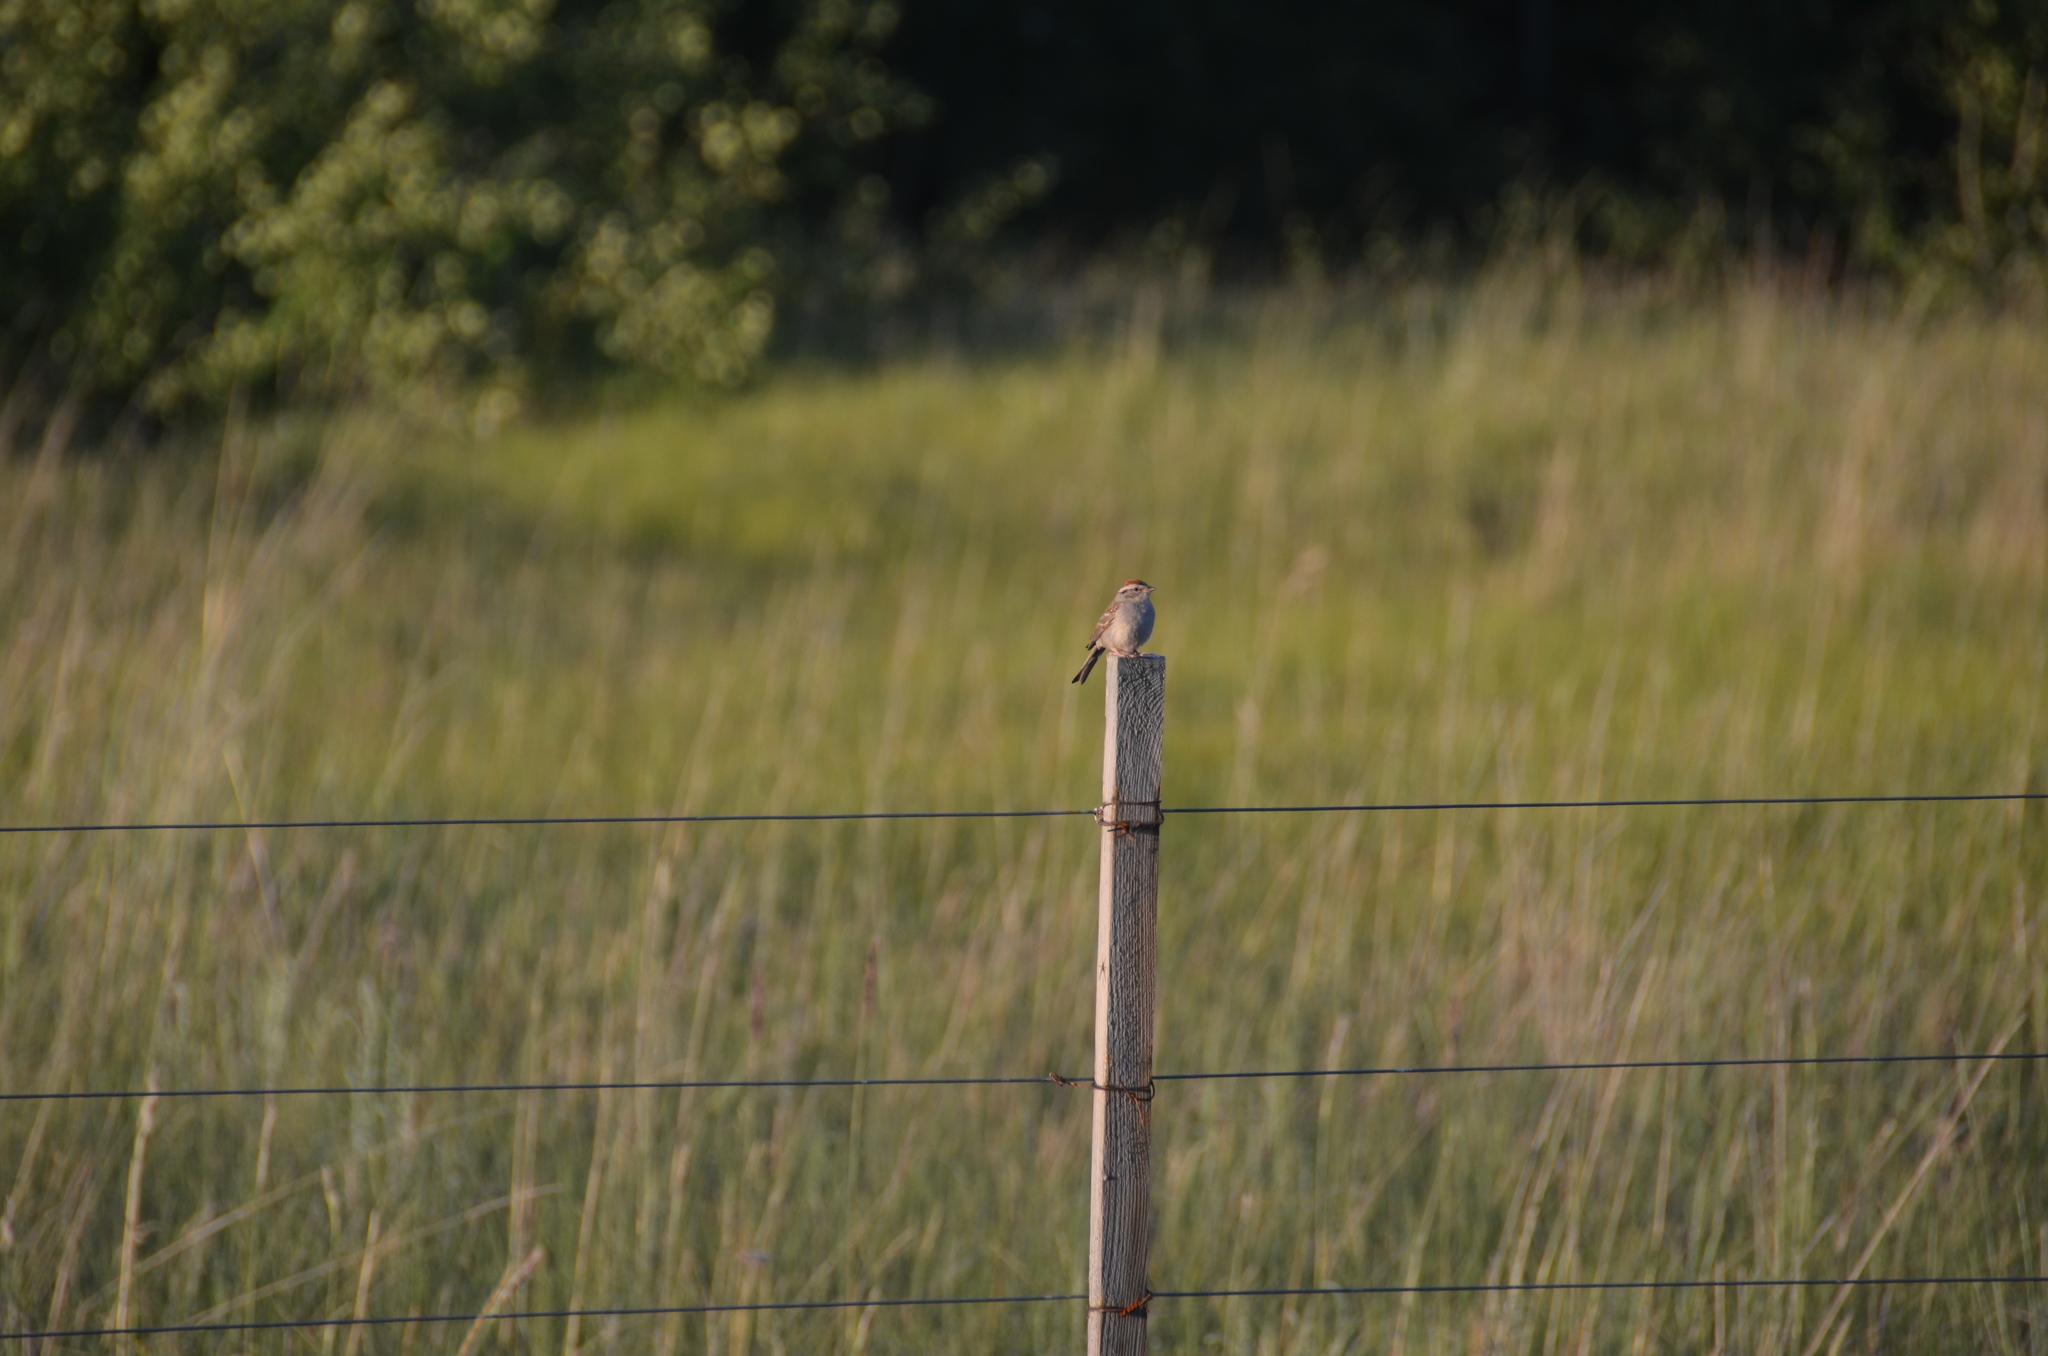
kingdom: Animalia
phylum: Chordata
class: Aves
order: Passeriformes
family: Passerellidae
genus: Spizella
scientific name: Spizella passerina
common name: Chipping sparrow
